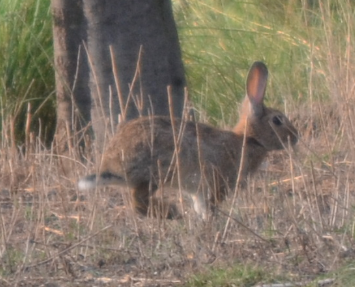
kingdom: Animalia
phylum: Chordata
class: Mammalia
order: Lagomorpha
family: Leporidae
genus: Oryctolagus
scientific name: Oryctolagus cuniculus
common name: European rabbit
